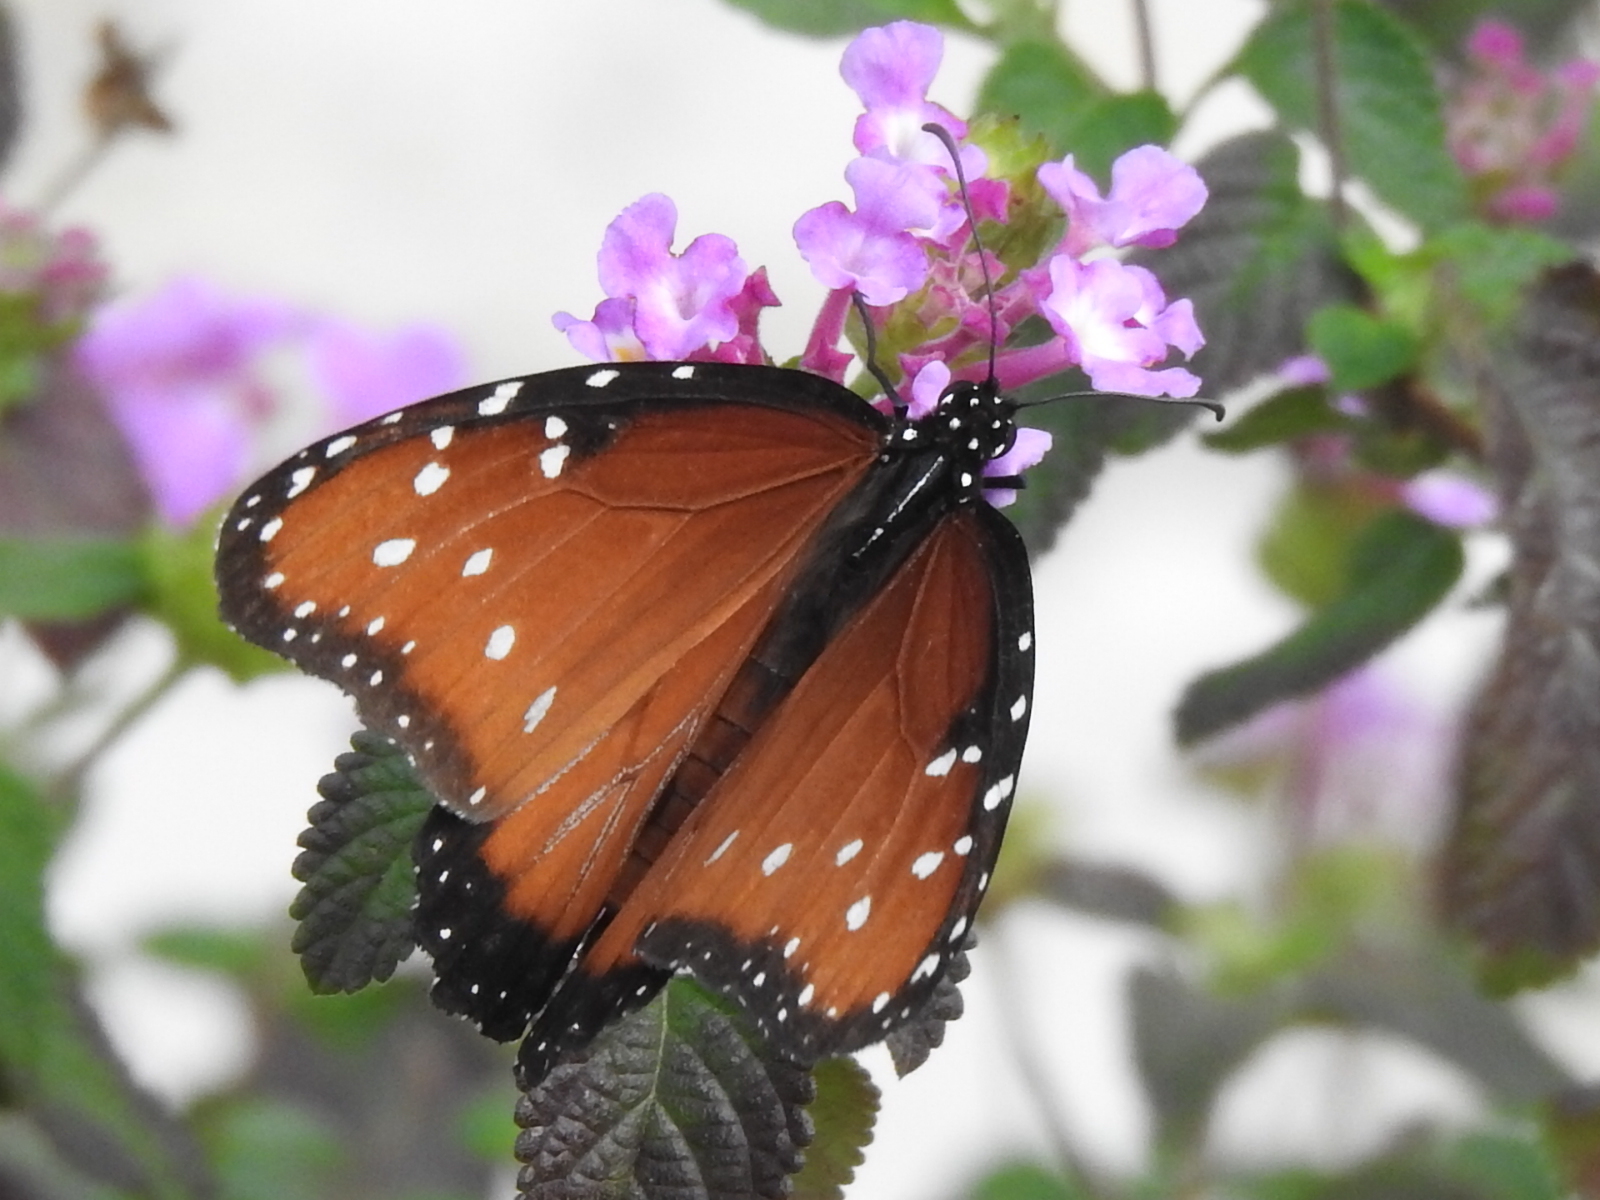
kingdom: Animalia
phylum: Arthropoda
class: Insecta
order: Lepidoptera
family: Nymphalidae
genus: Danaus
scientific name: Danaus gilippus
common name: Queen
